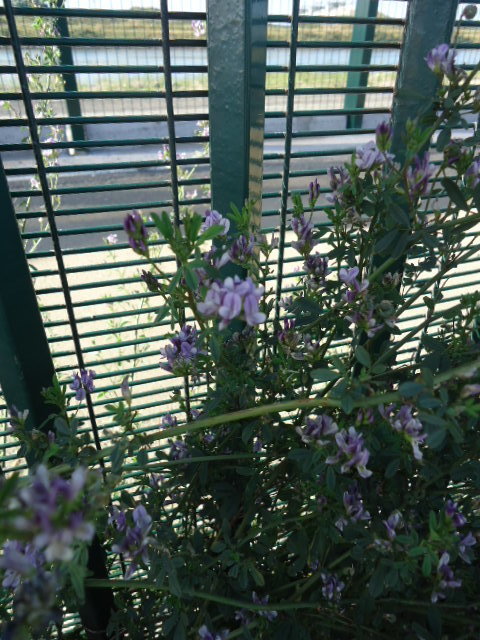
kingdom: Plantae
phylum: Tracheophyta
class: Magnoliopsida
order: Fabales
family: Fabaceae
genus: Medicago
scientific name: Medicago sativa
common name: Alfalfa
